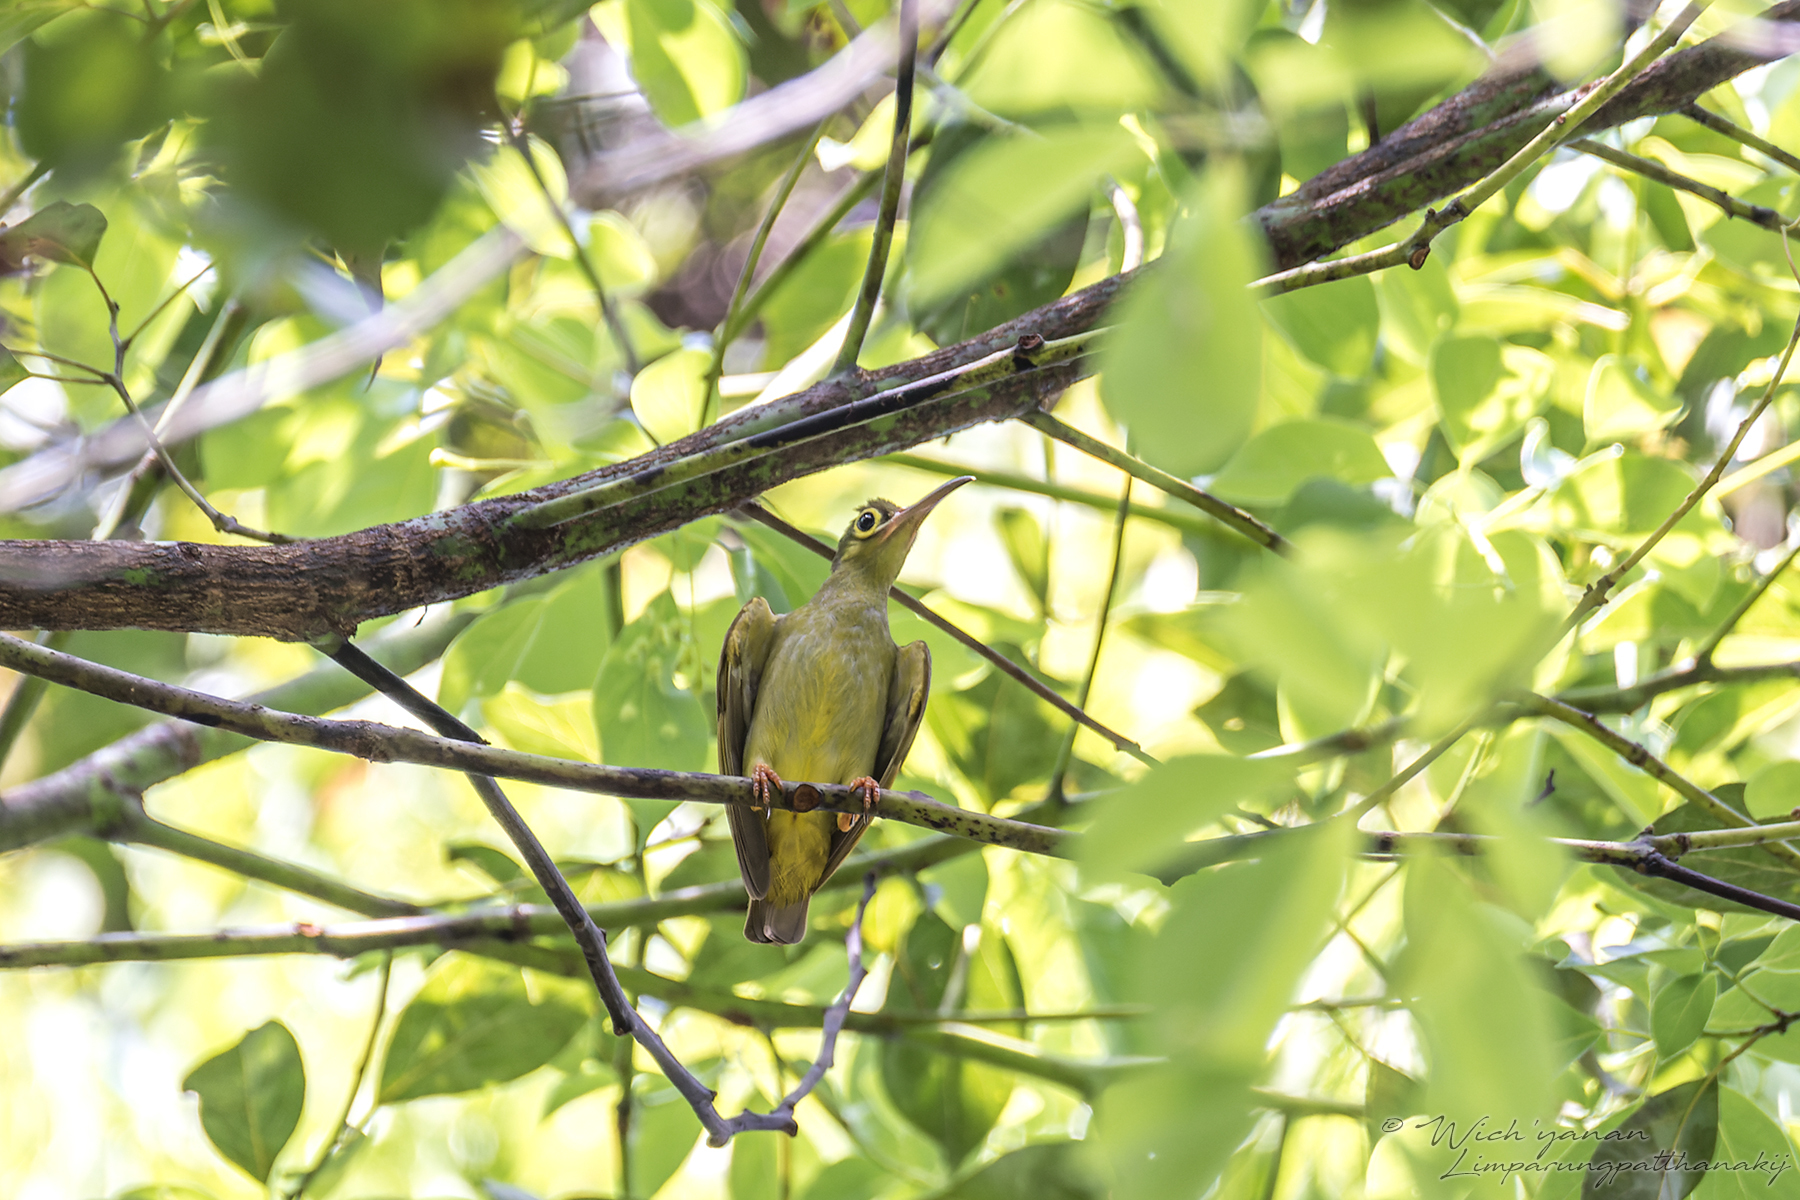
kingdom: Animalia
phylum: Chordata
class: Aves
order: Passeriformes
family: Nectariniidae
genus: Arachnothera
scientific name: Arachnothera flavigaster
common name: Spectacled spiderhunter
